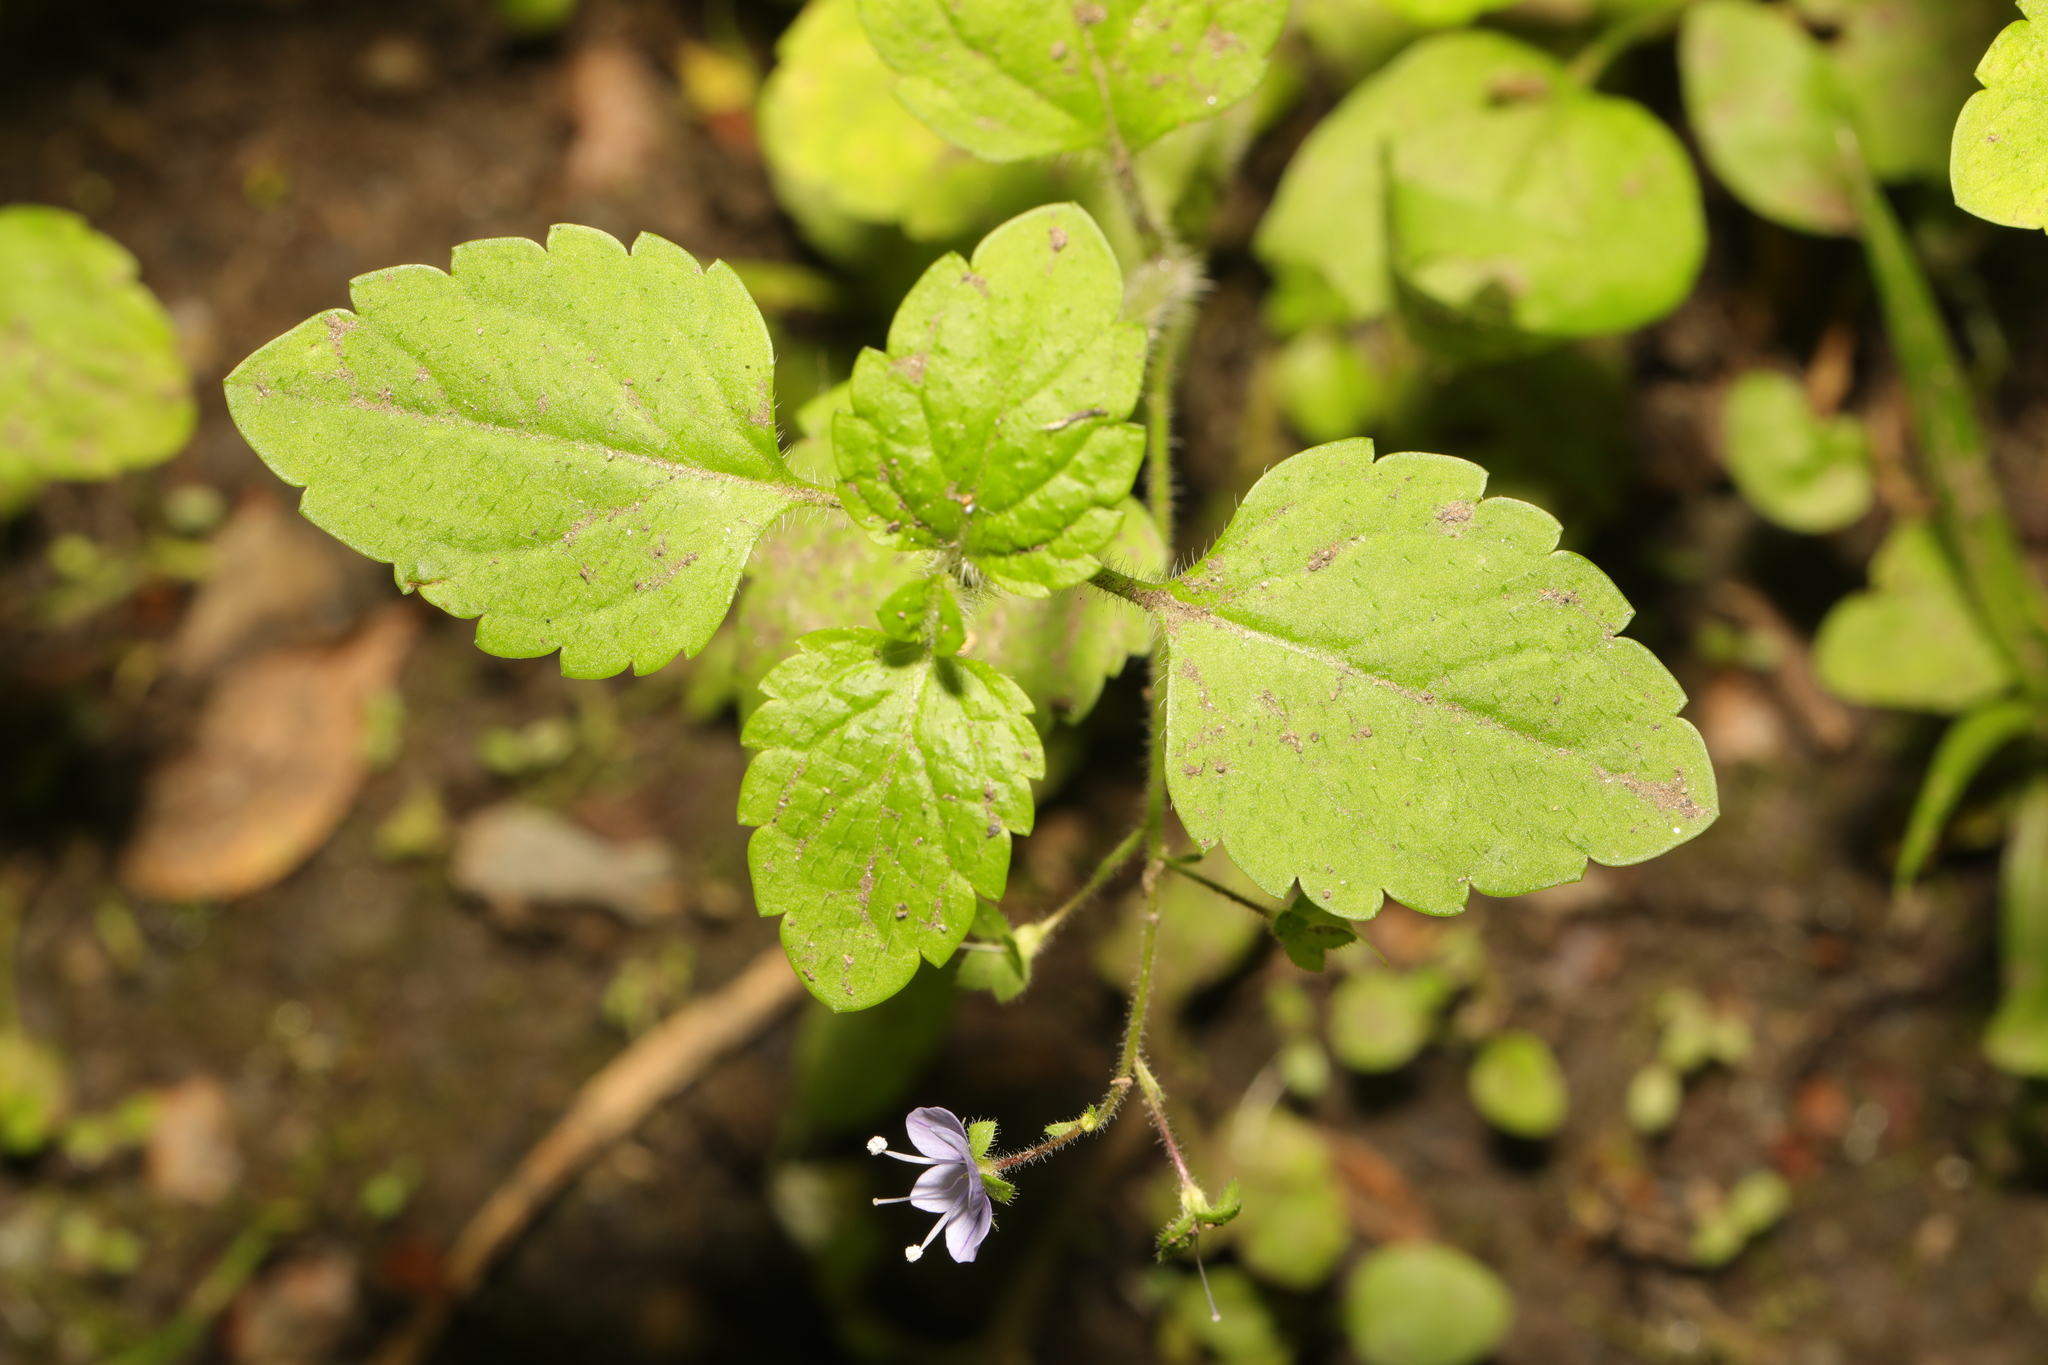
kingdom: Plantae
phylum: Tracheophyta
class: Magnoliopsida
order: Lamiales
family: Plantaginaceae
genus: Veronica
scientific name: Veronica montana
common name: Wood speedwell
